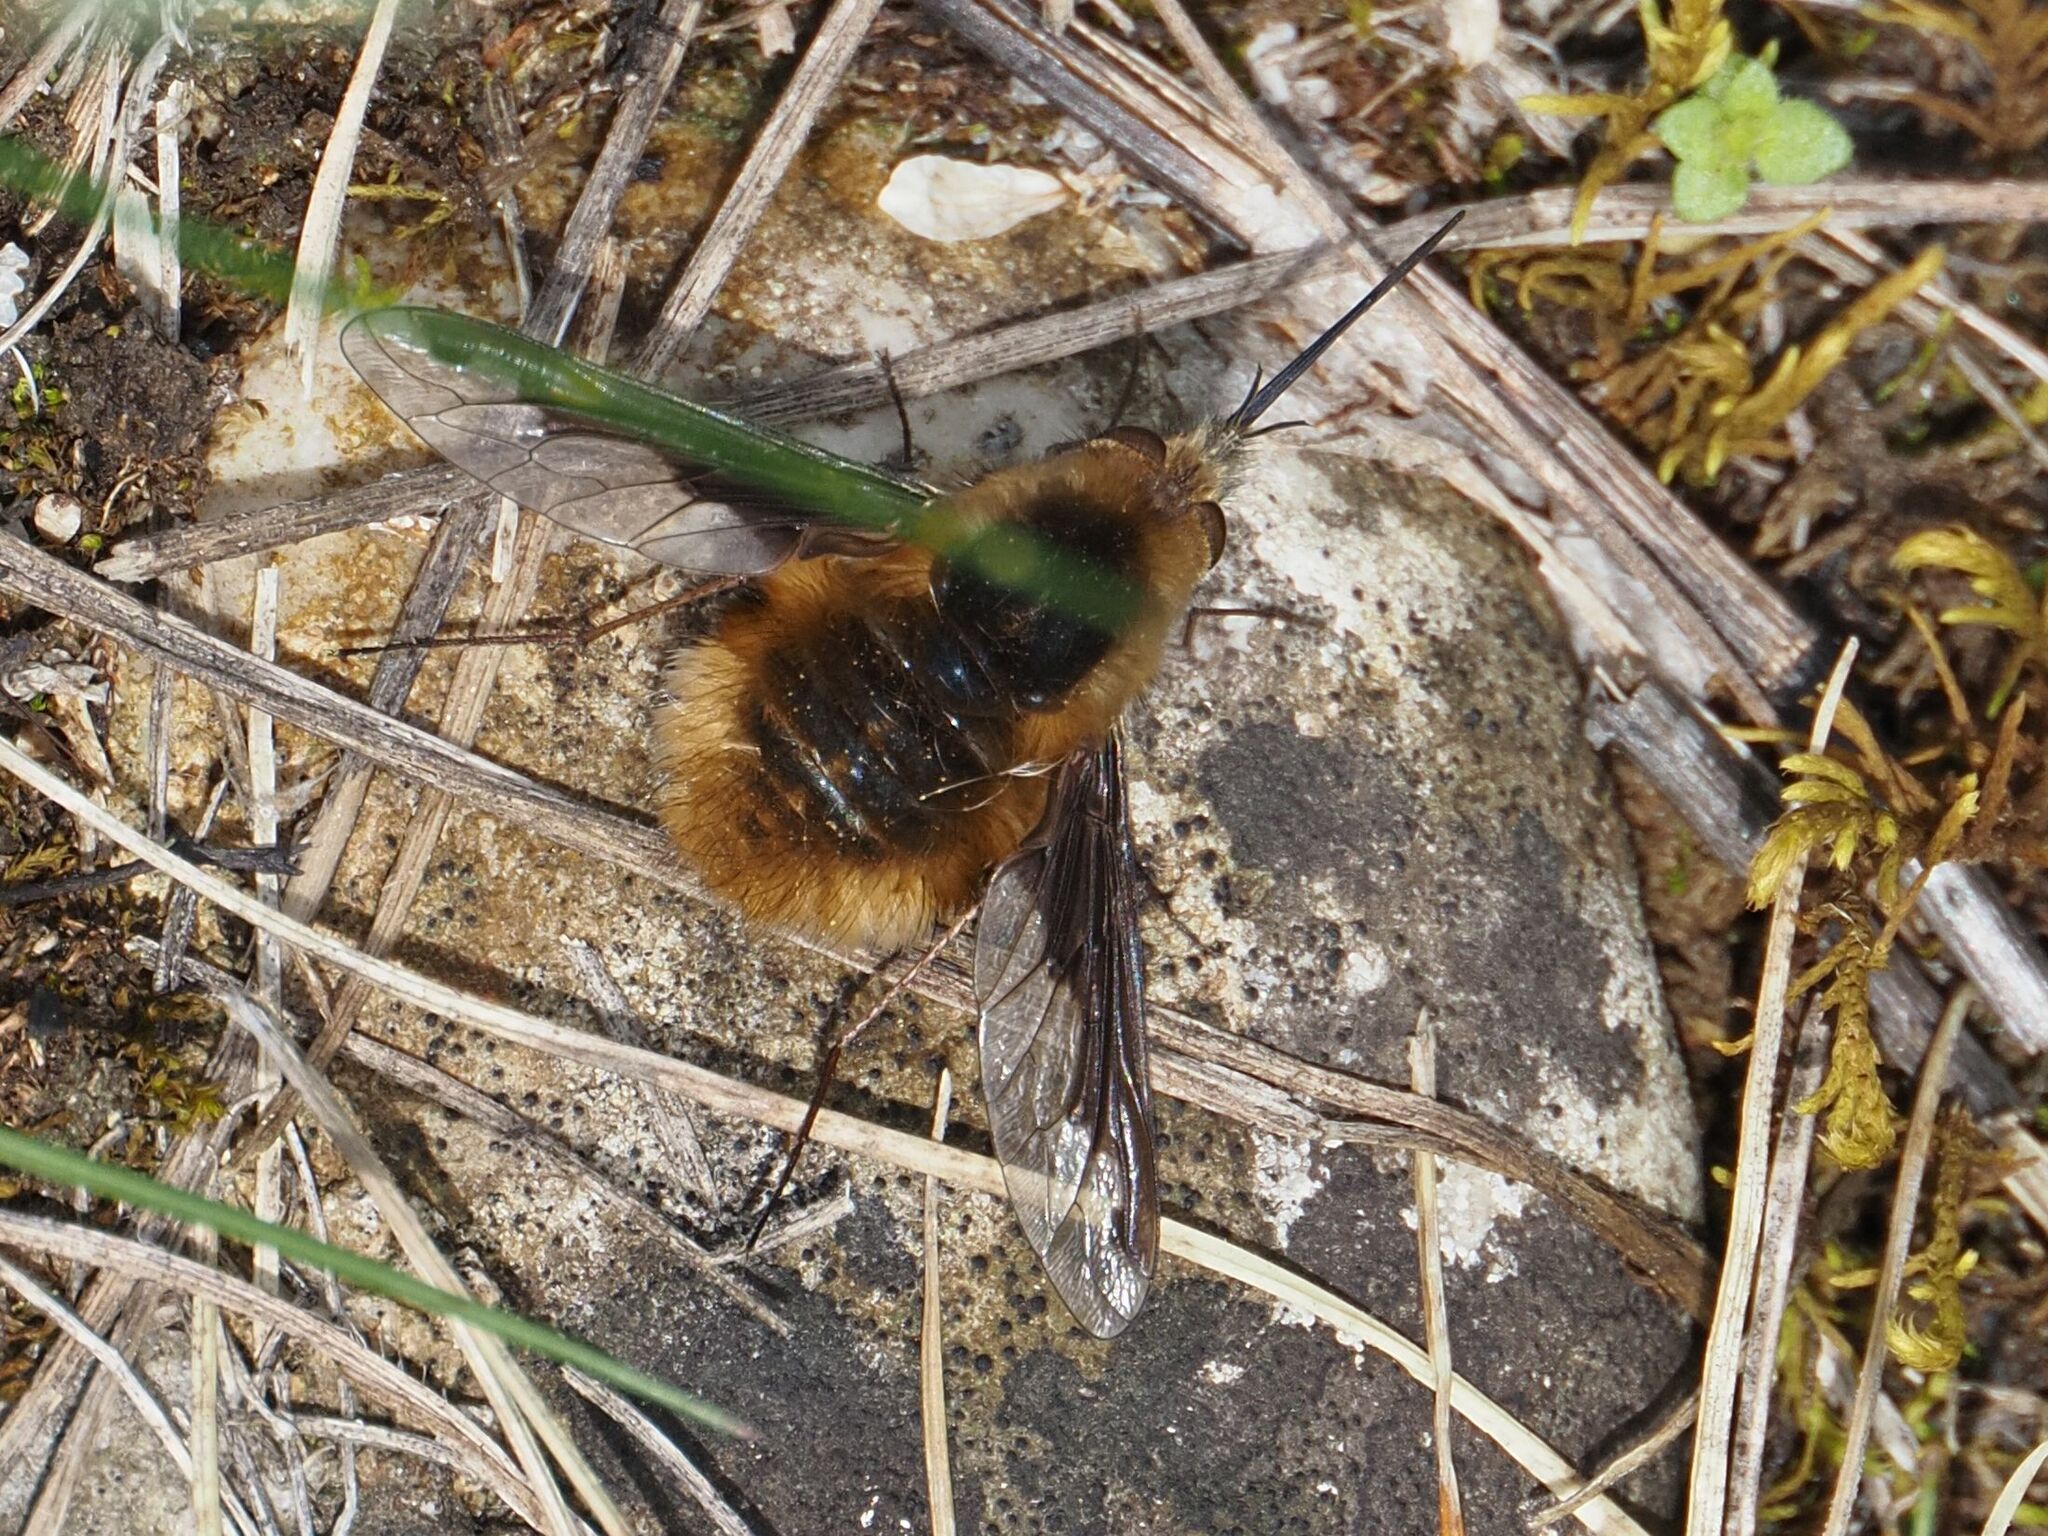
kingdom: Animalia
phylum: Arthropoda
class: Insecta
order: Diptera
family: Bombyliidae
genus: Bombylius
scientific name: Bombylius major
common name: Bee fly
